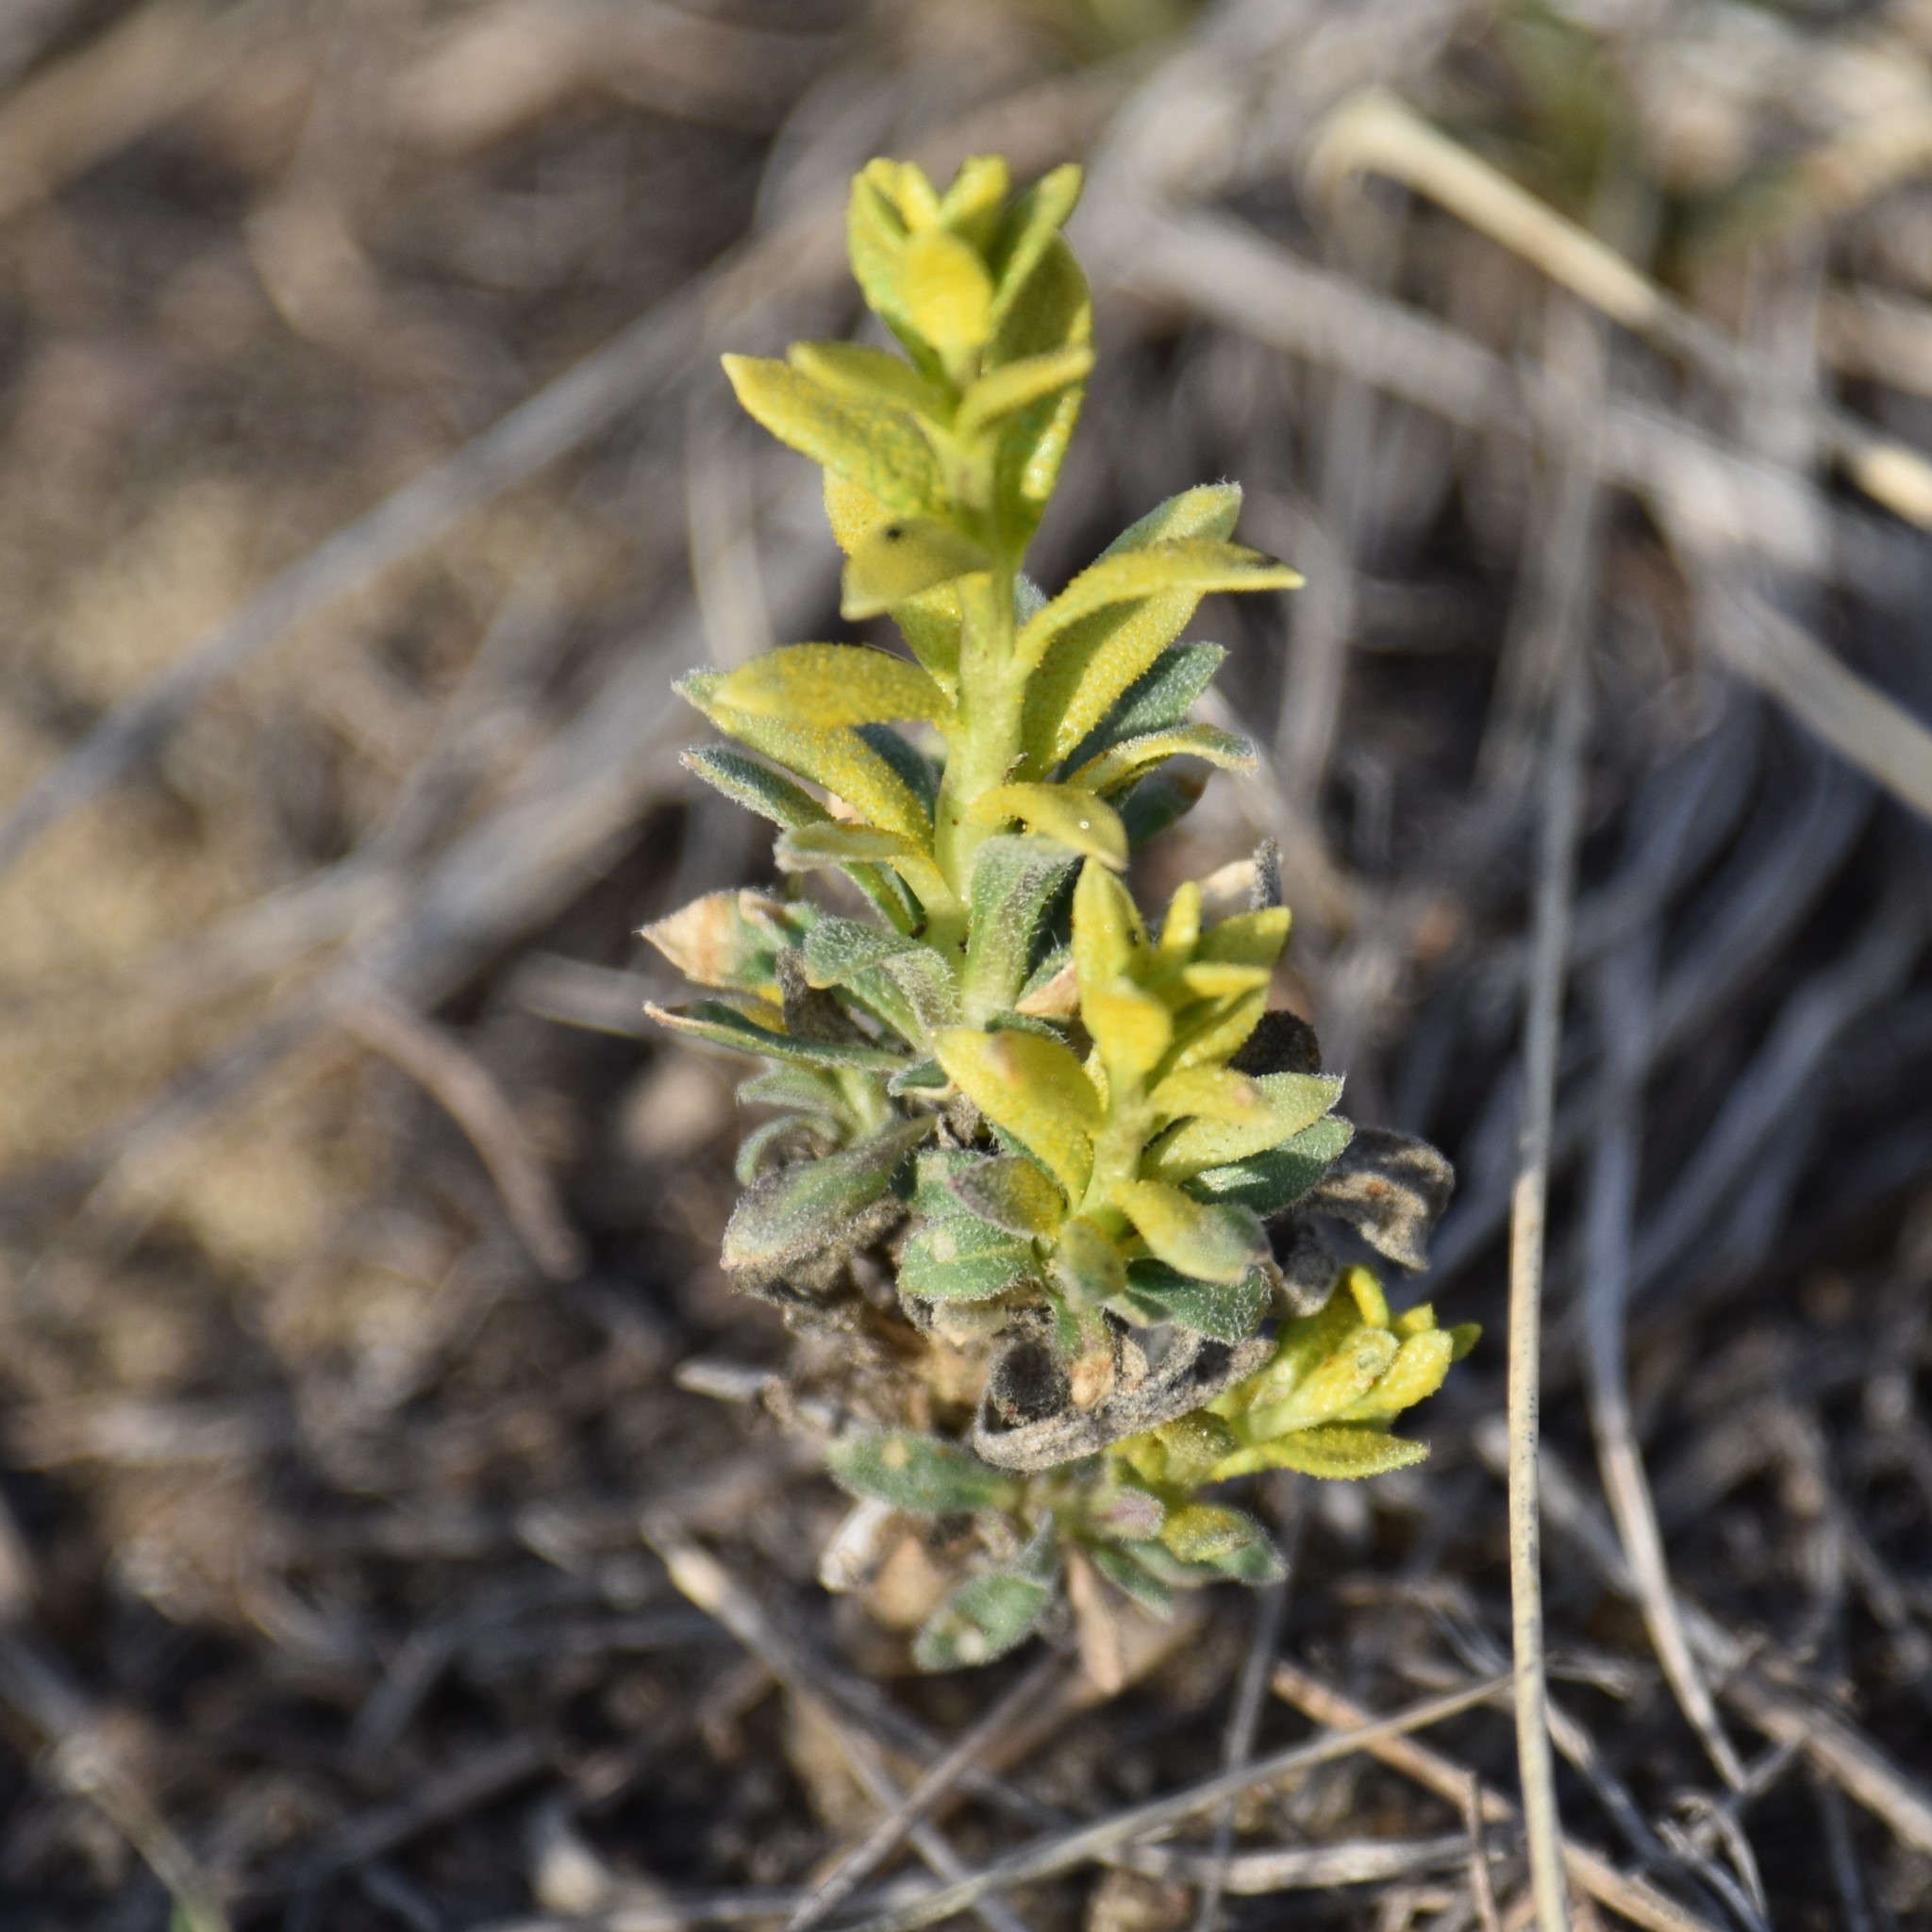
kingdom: Fungi
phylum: Basidiomycota
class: Pucciniomycetes
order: Pucciniales
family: Pucciniaceae
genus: Puccinia
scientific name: Puccinia monoica
